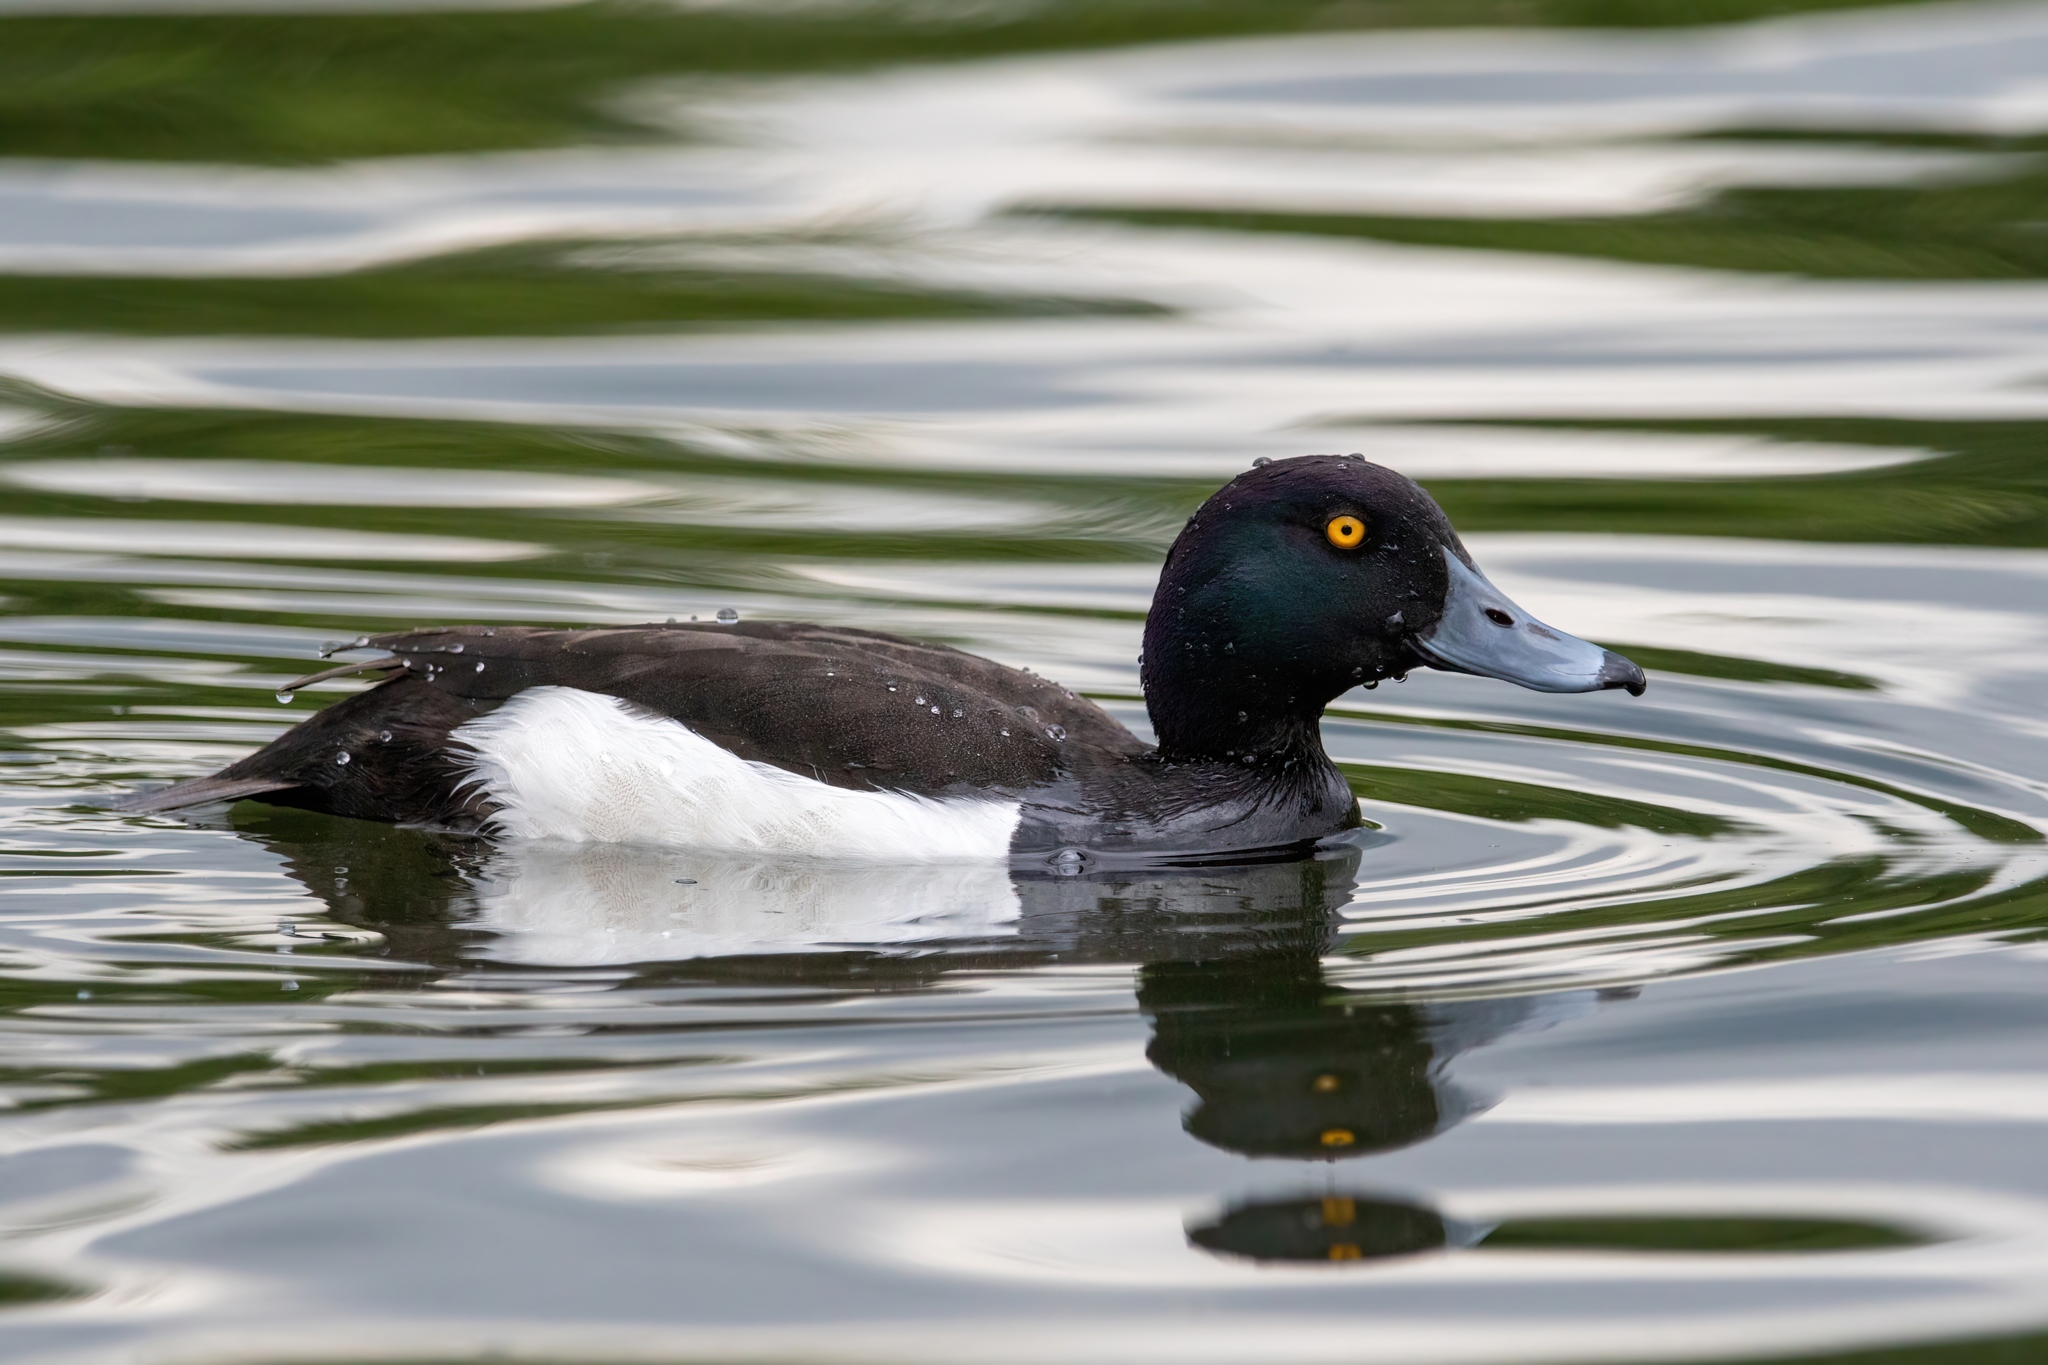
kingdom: Animalia
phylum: Chordata
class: Aves
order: Anseriformes
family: Anatidae
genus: Aythya
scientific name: Aythya fuligula
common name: Tufted duck
